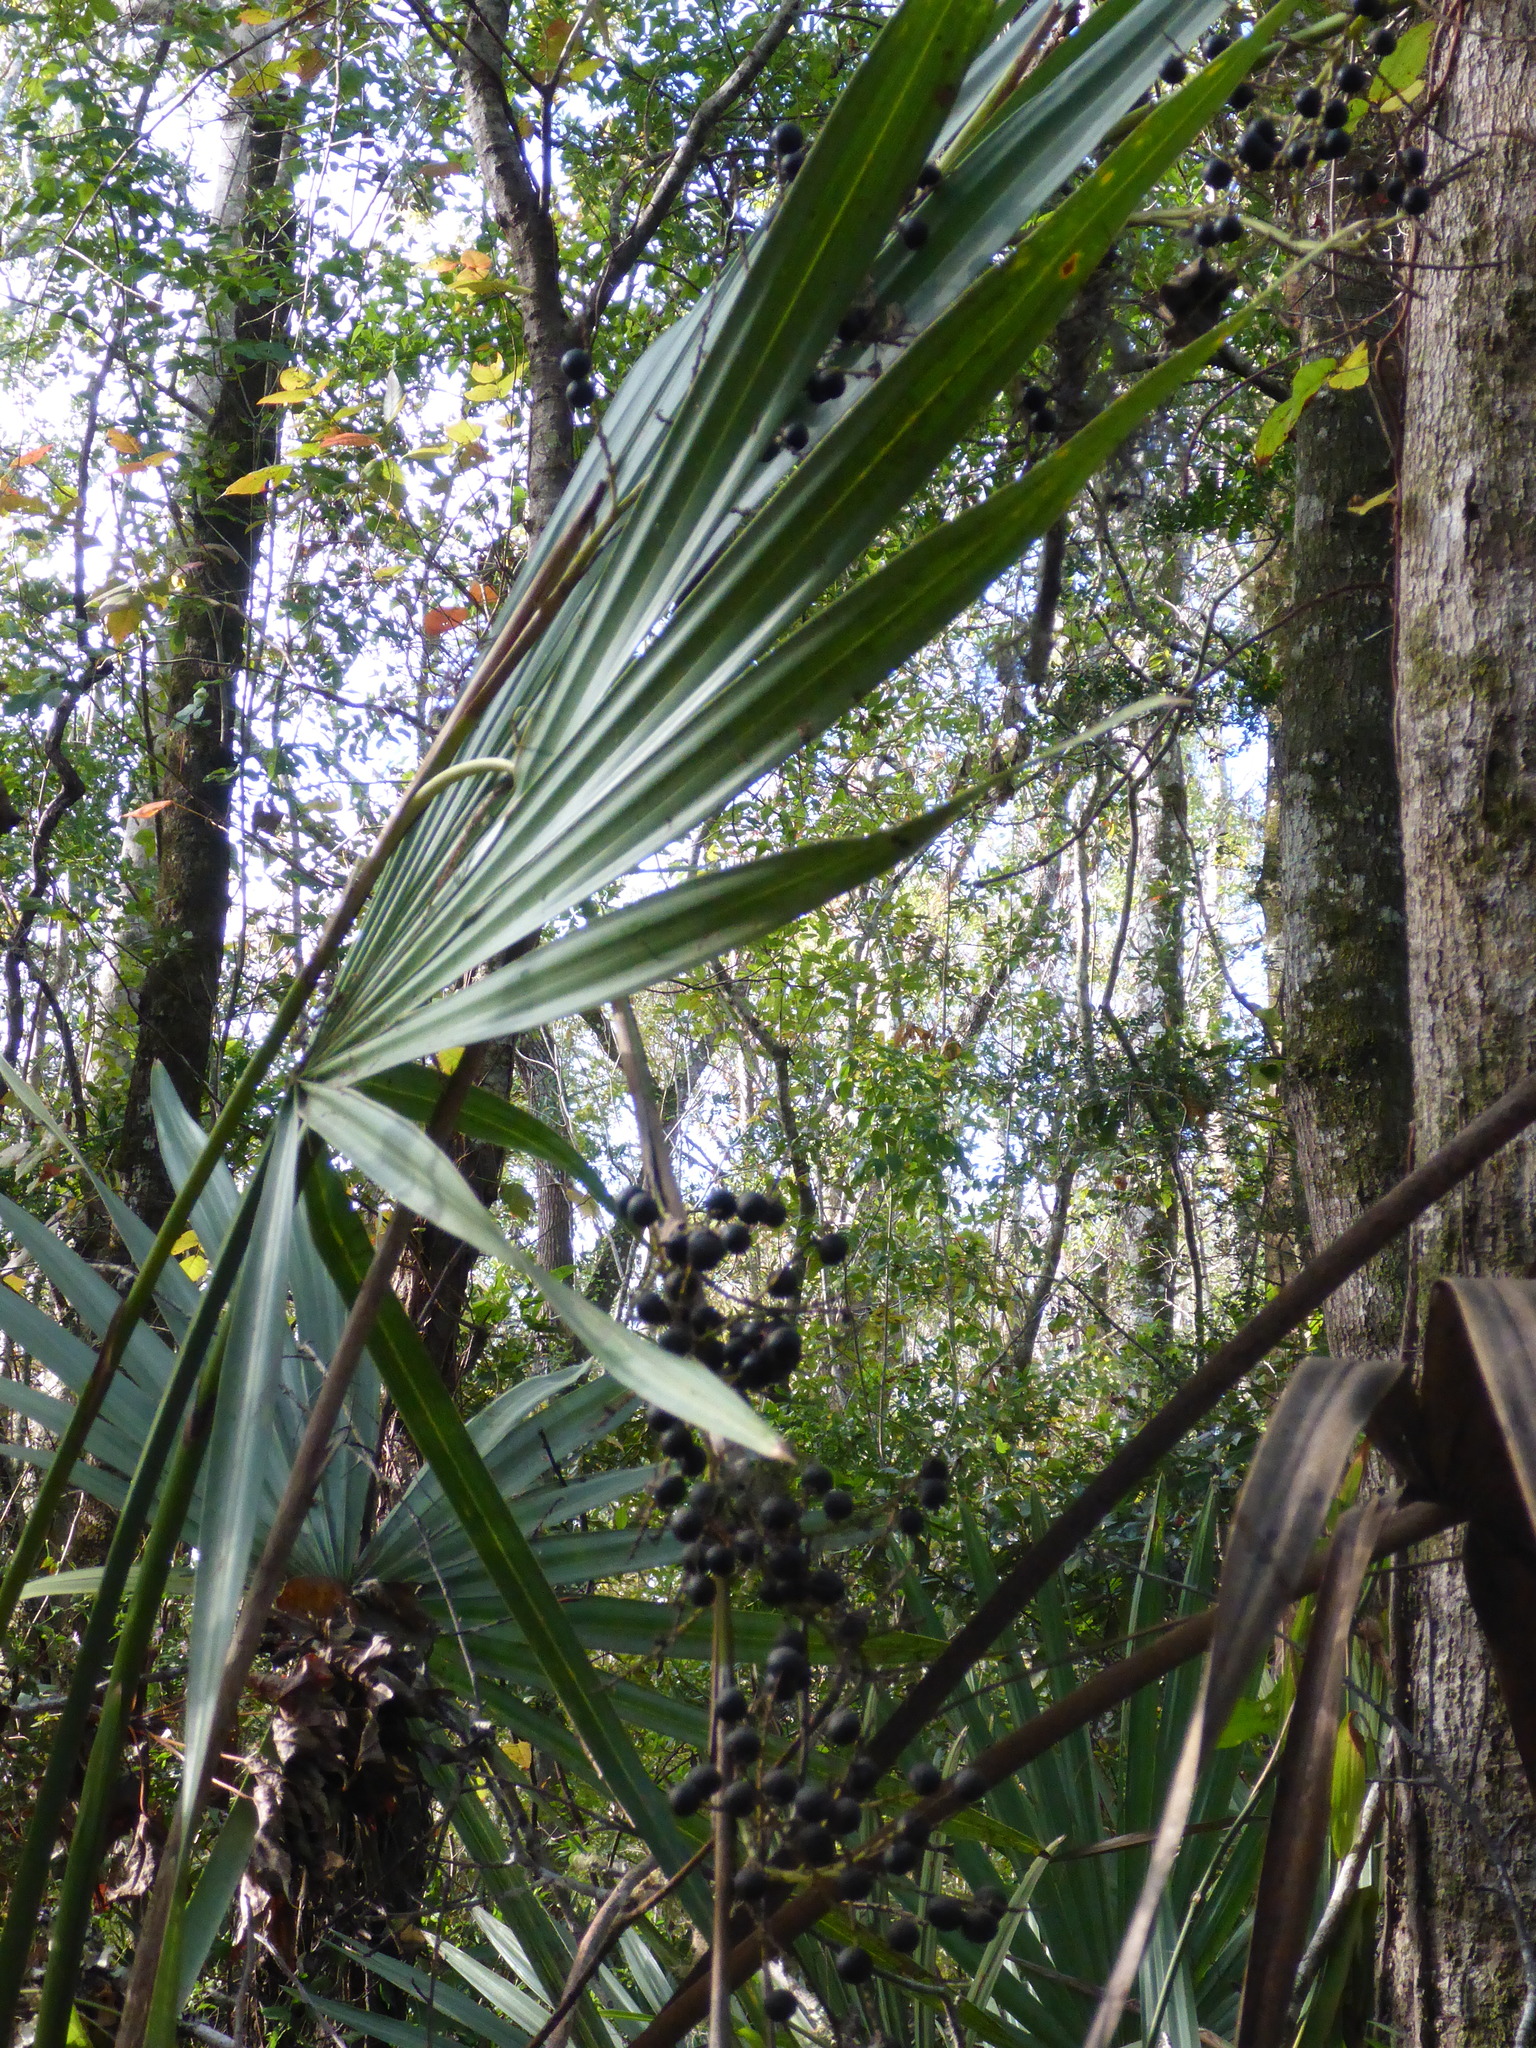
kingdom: Plantae
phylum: Tracheophyta
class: Liliopsida
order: Arecales
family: Arecaceae
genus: Sabal
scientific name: Sabal minor
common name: Dwarf palmetto
